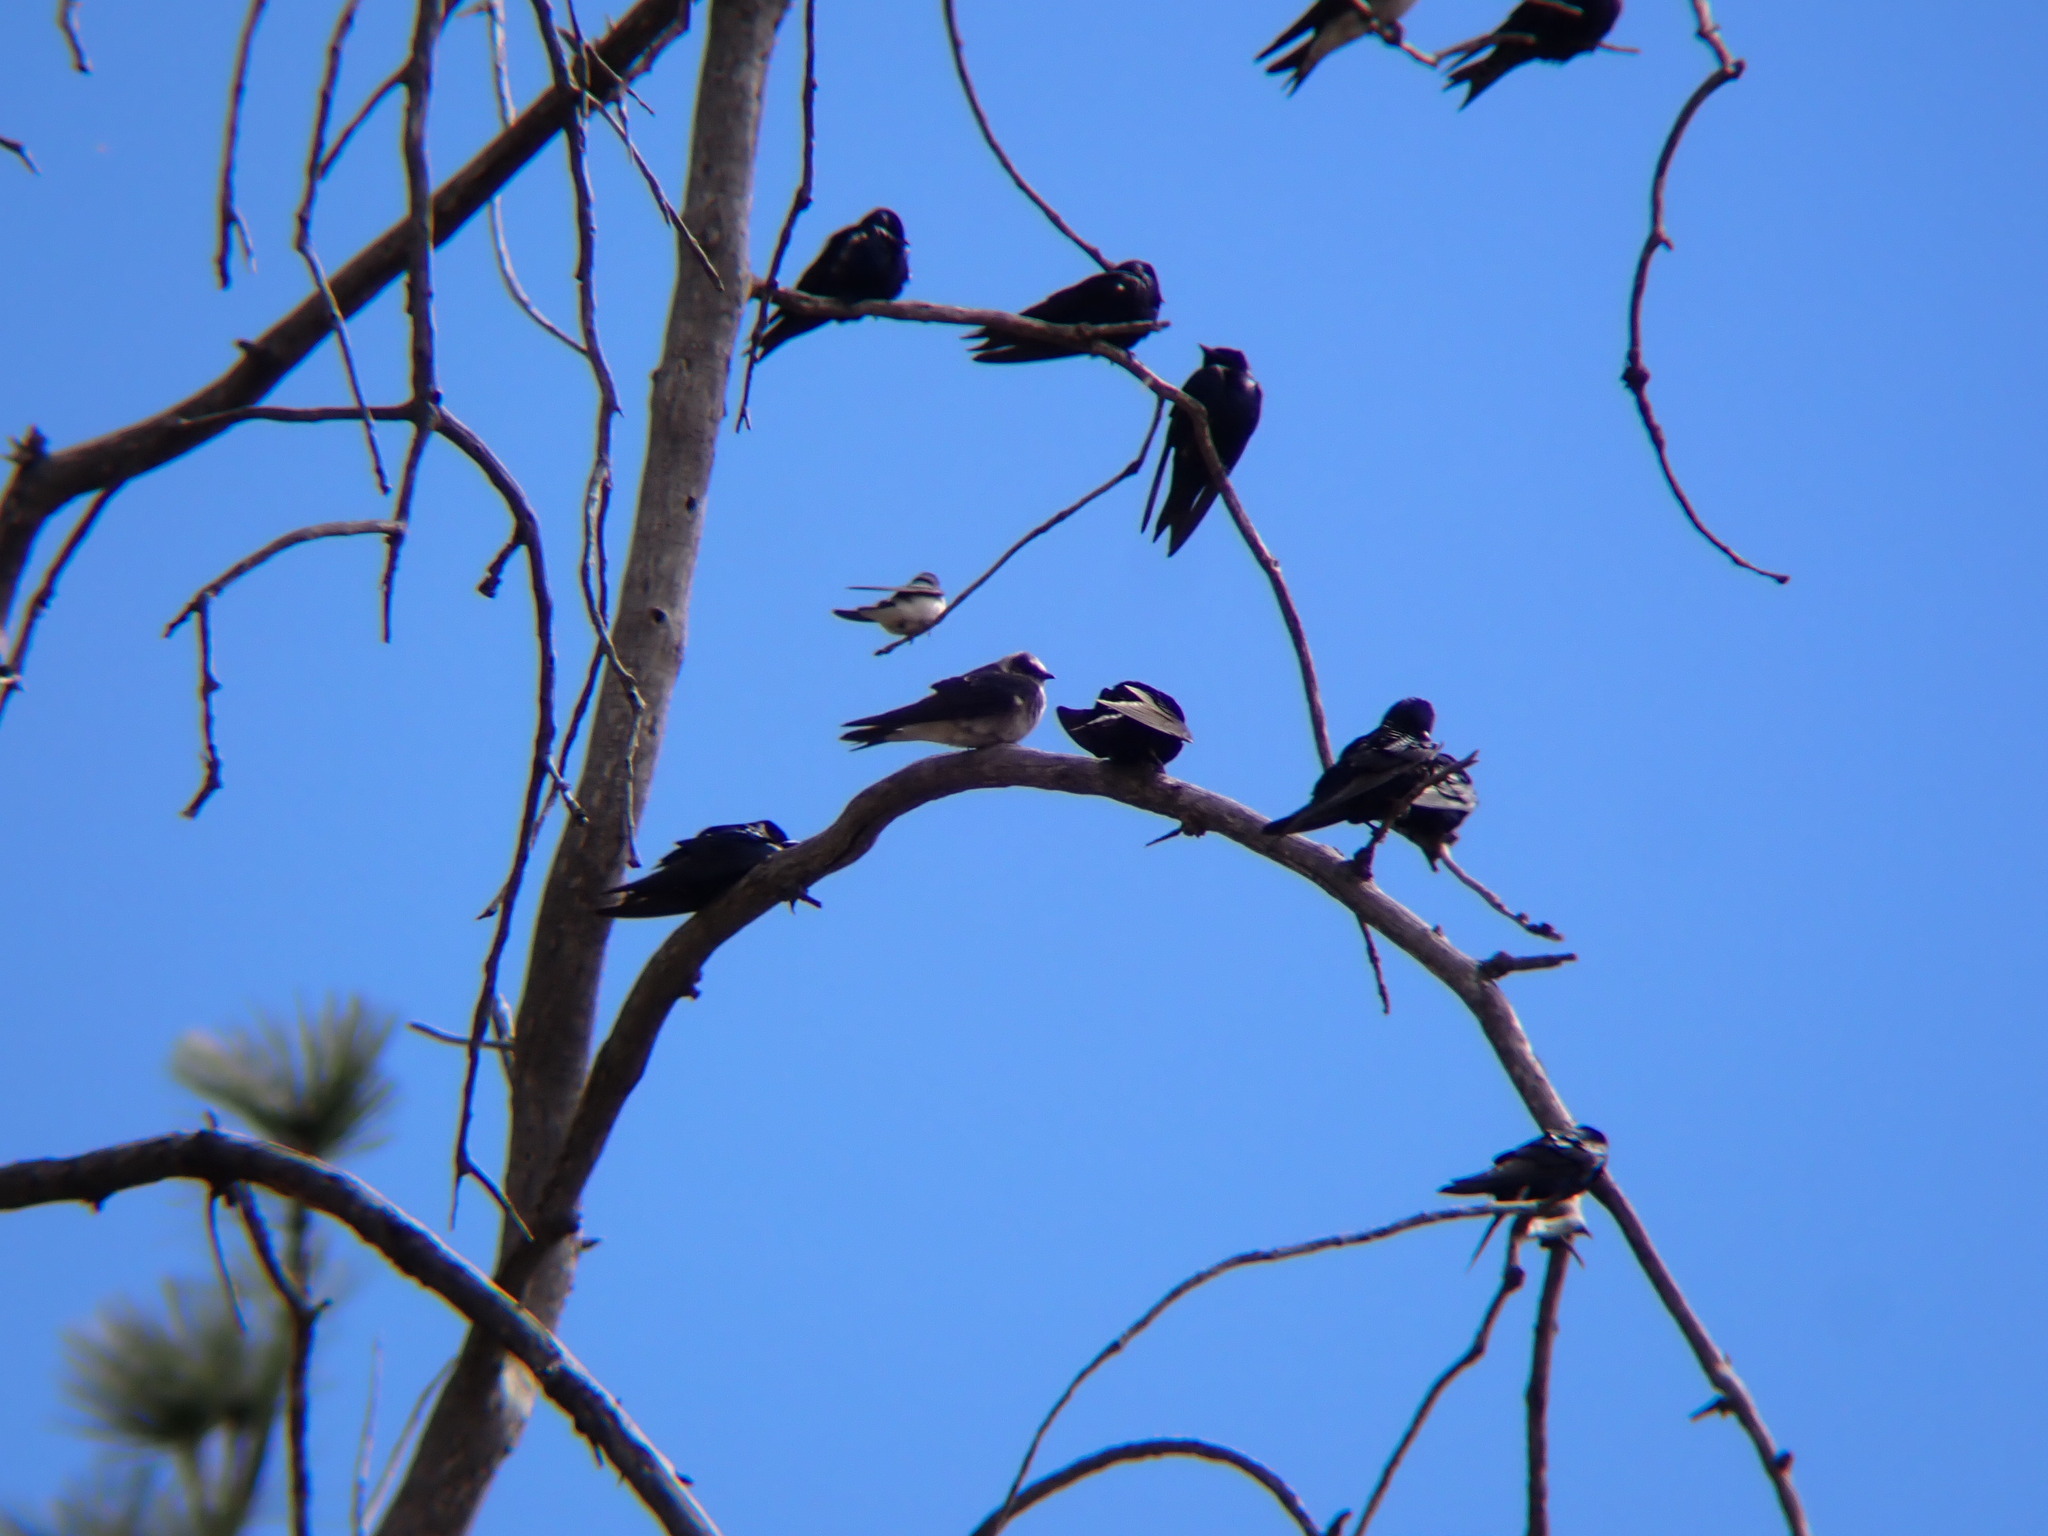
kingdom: Animalia
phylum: Chordata
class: Aves
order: Passeriformes
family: Hirundinidae
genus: Progne
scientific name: Progne subis
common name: Purple martin
